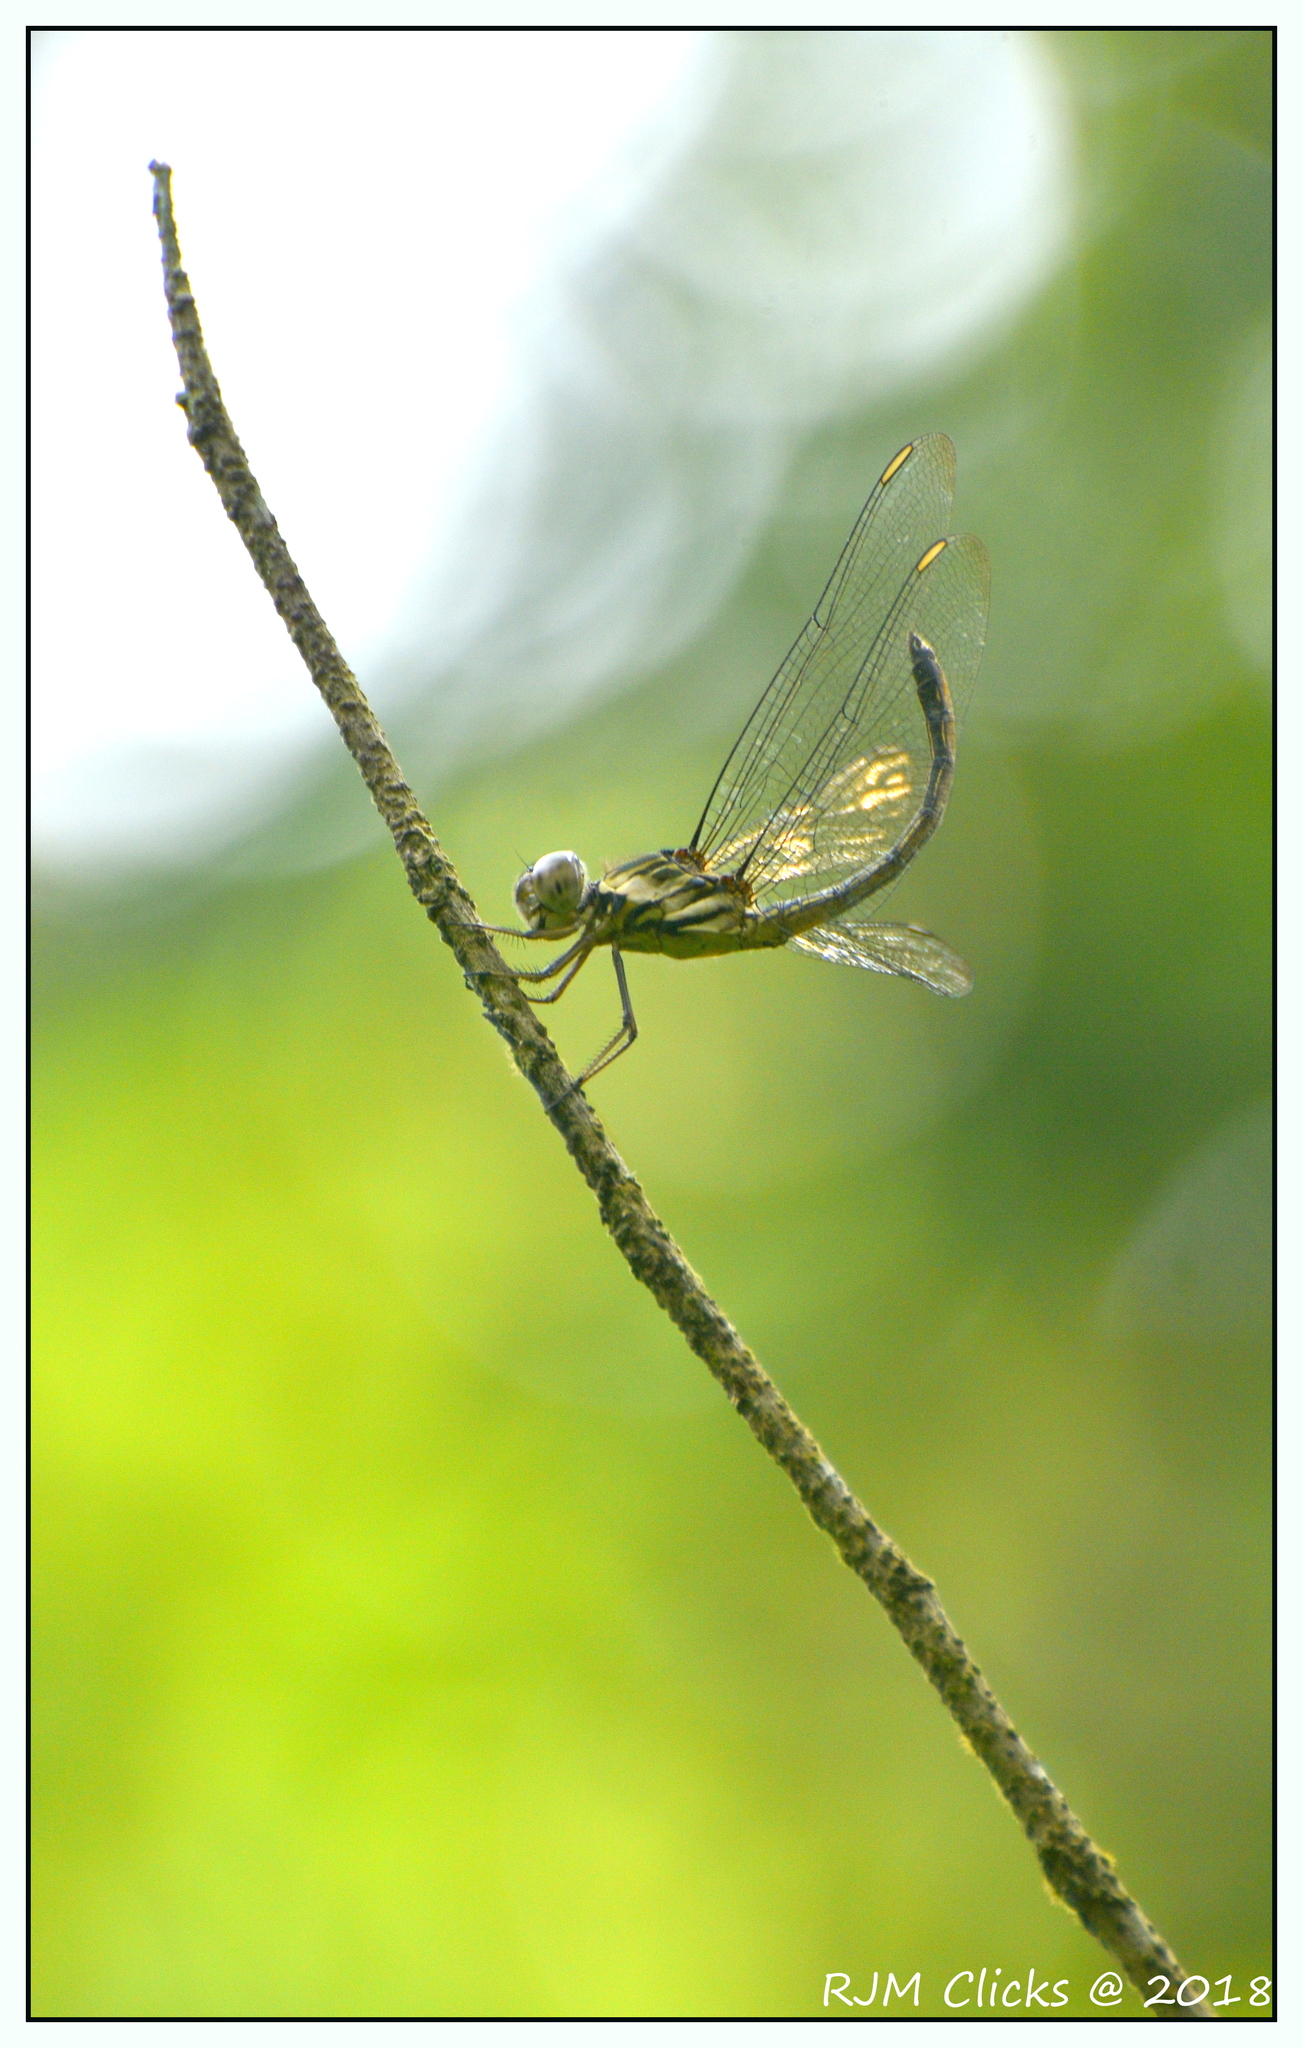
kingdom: Animalia
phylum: Arthropoda
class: Insecta
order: Odonata
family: Libellulidae
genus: Cratilla
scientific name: Cratilla lineata
